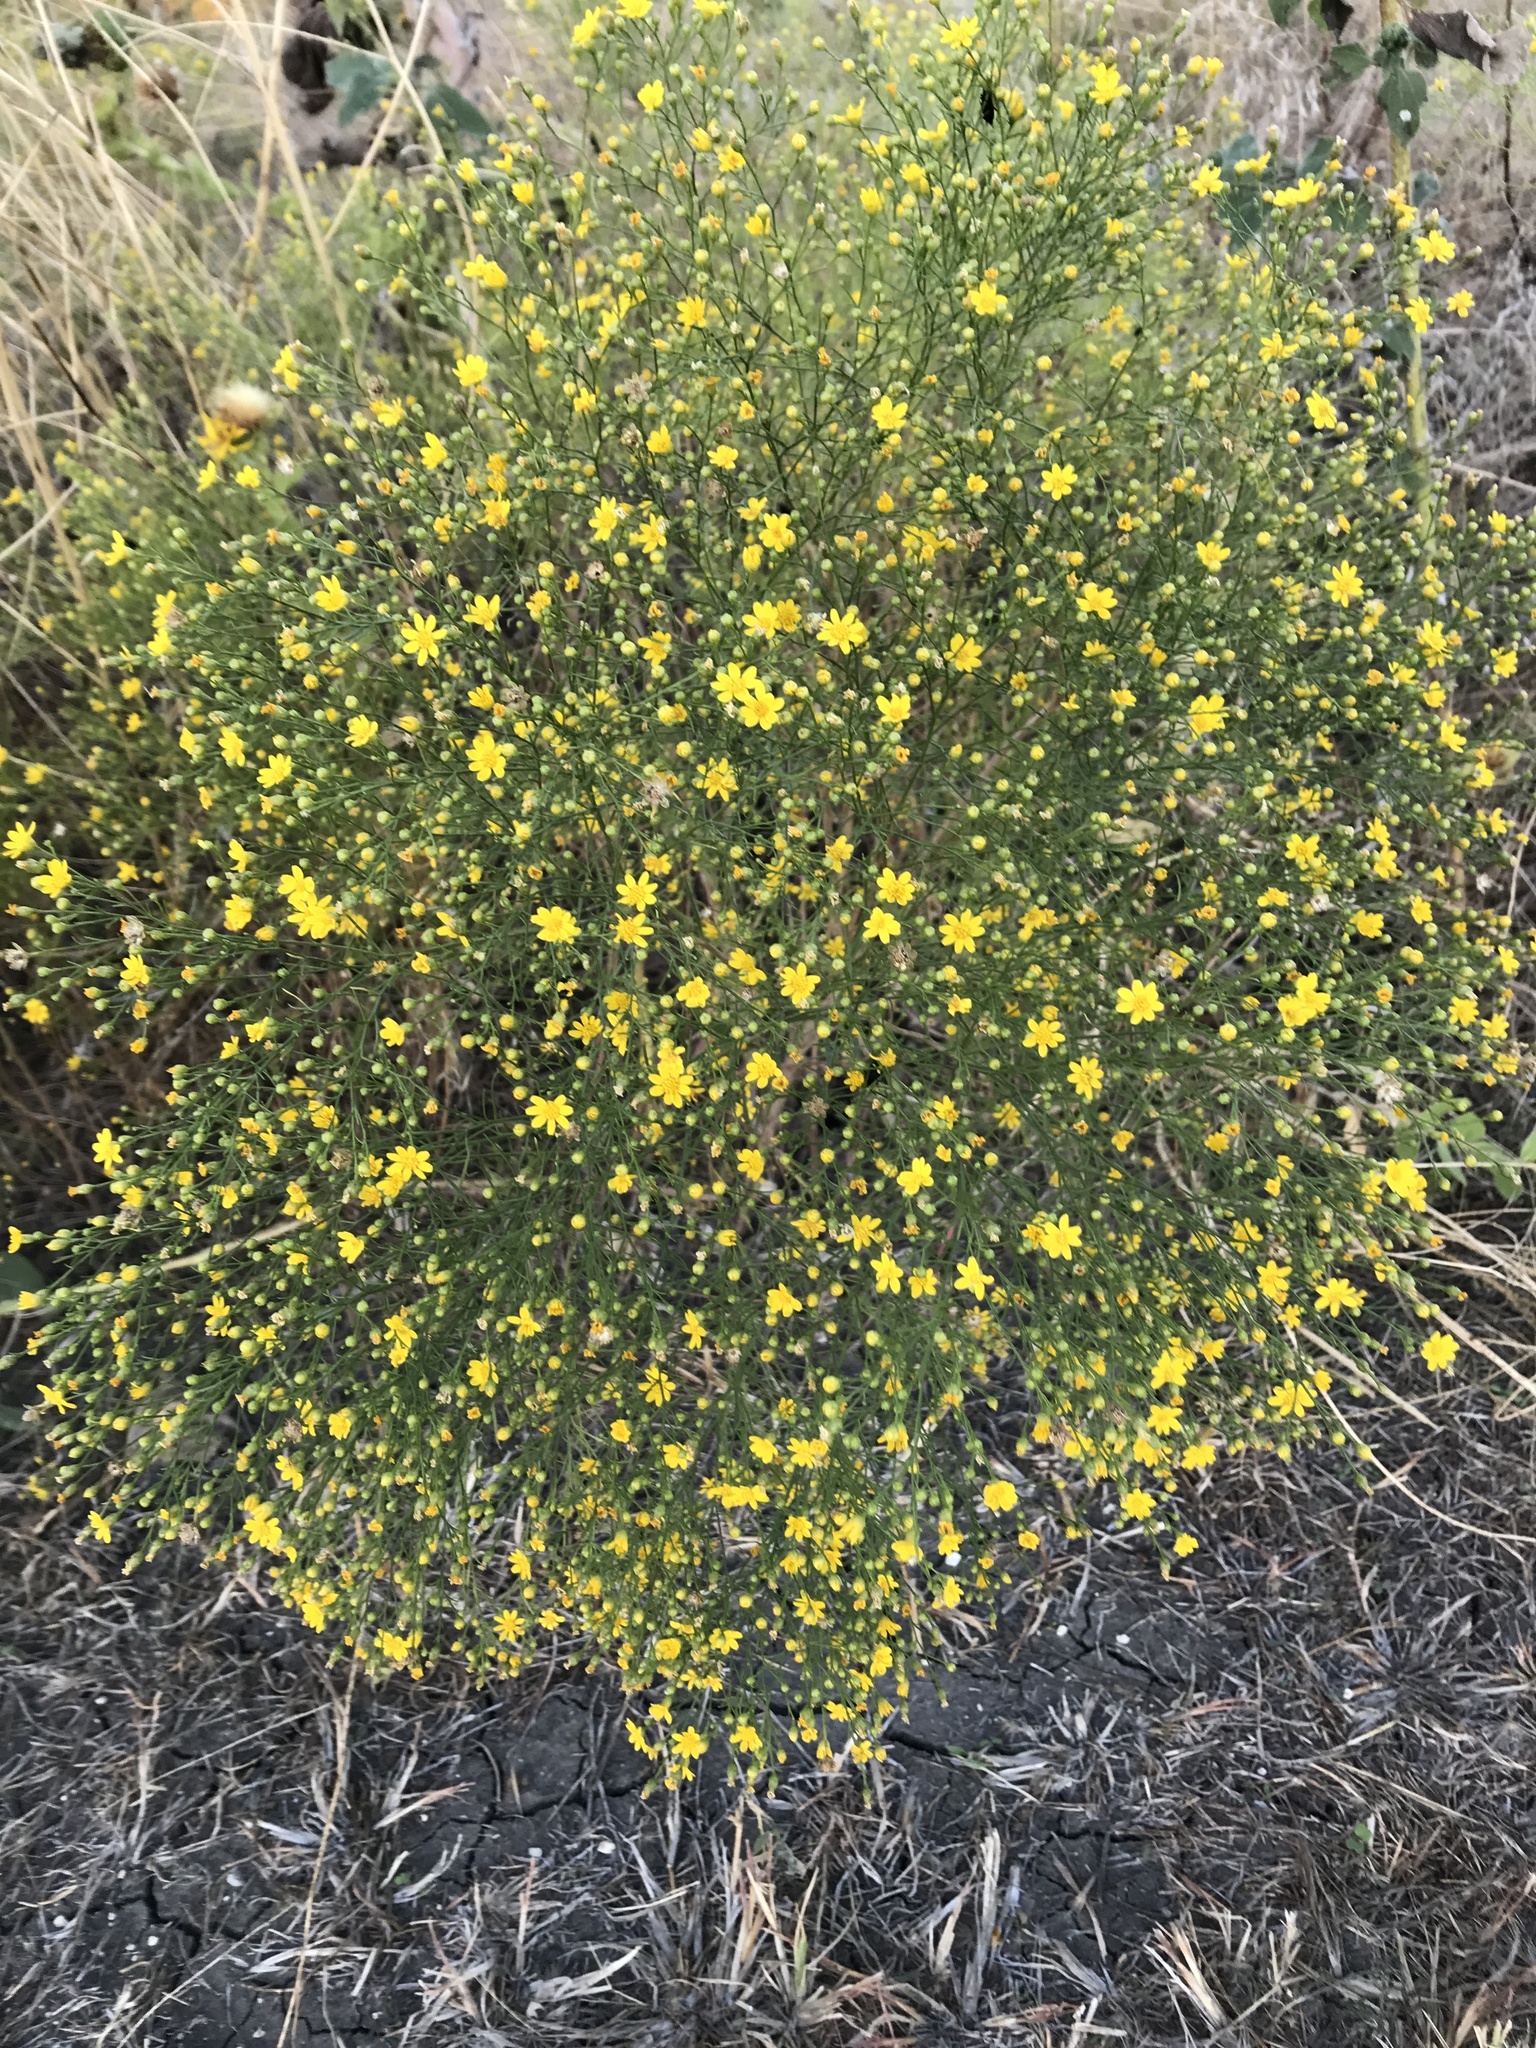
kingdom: Plantae
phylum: Tracheophyta
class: Magnoliopsida
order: Asterales
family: Asteraceae
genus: Amphiachyris
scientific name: Amphiachyris dracunculoides
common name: Broomweed
